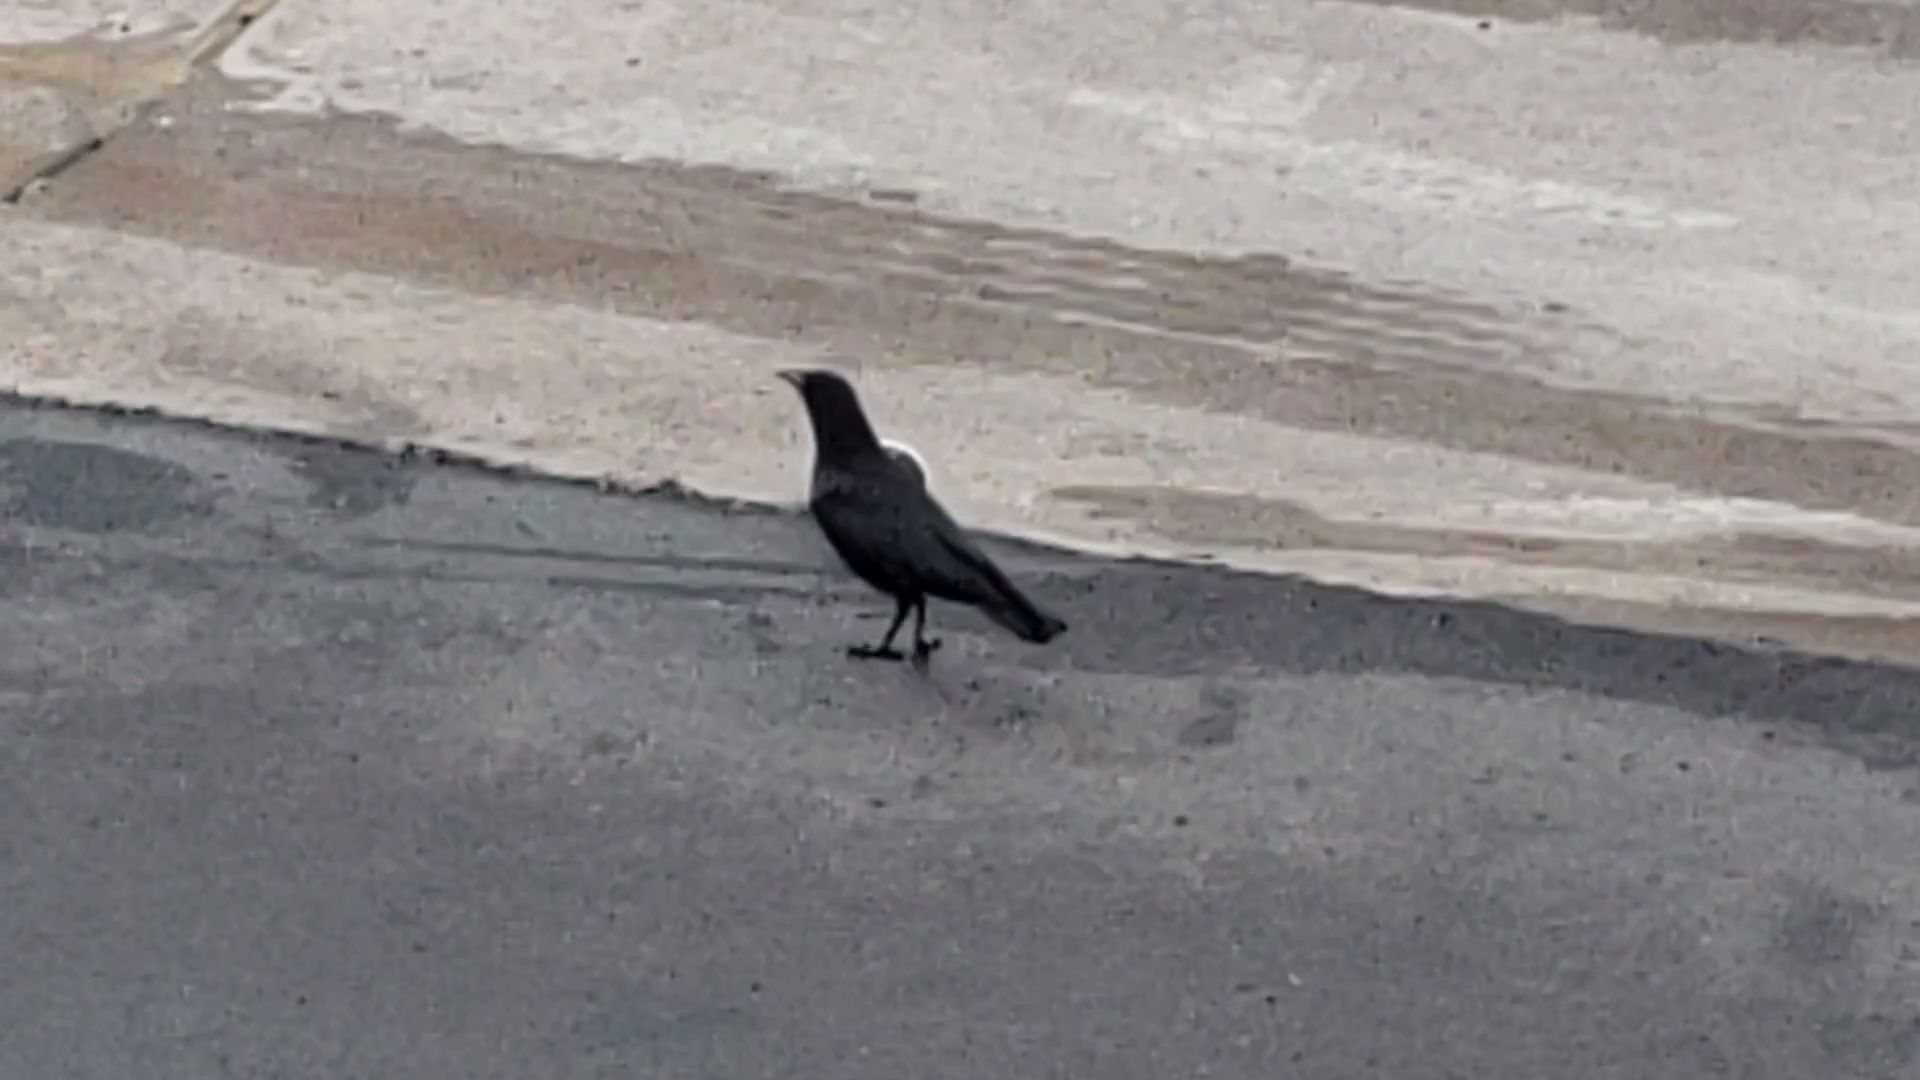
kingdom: Animalia
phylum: Chordata
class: Aves
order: Passeriformes
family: Corvidae
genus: Corvus
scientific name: Corvus brachyrhynchos
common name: American crow
